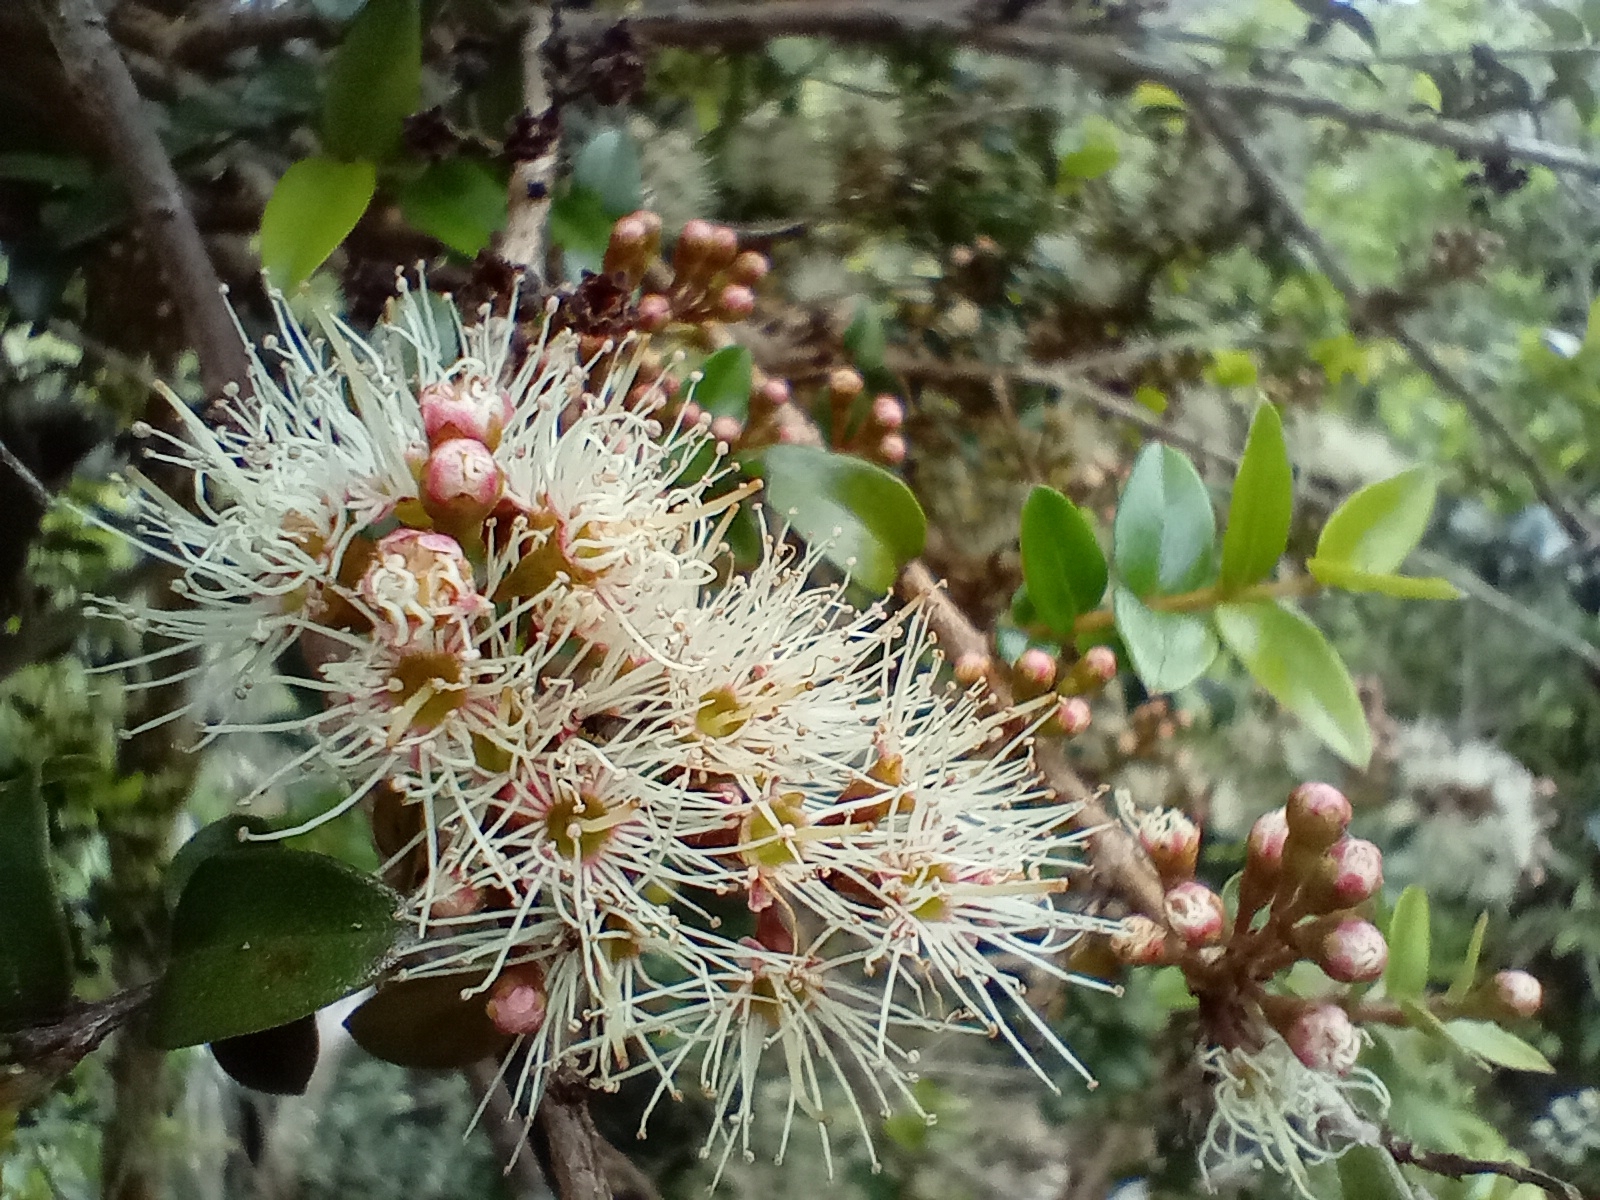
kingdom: Plantae
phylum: Tracheophyta
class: Magnoliopsida
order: Myrtales
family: Myrtaceae
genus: Metrosideros
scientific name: Metrosideros diffusa
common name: Small ratavine
